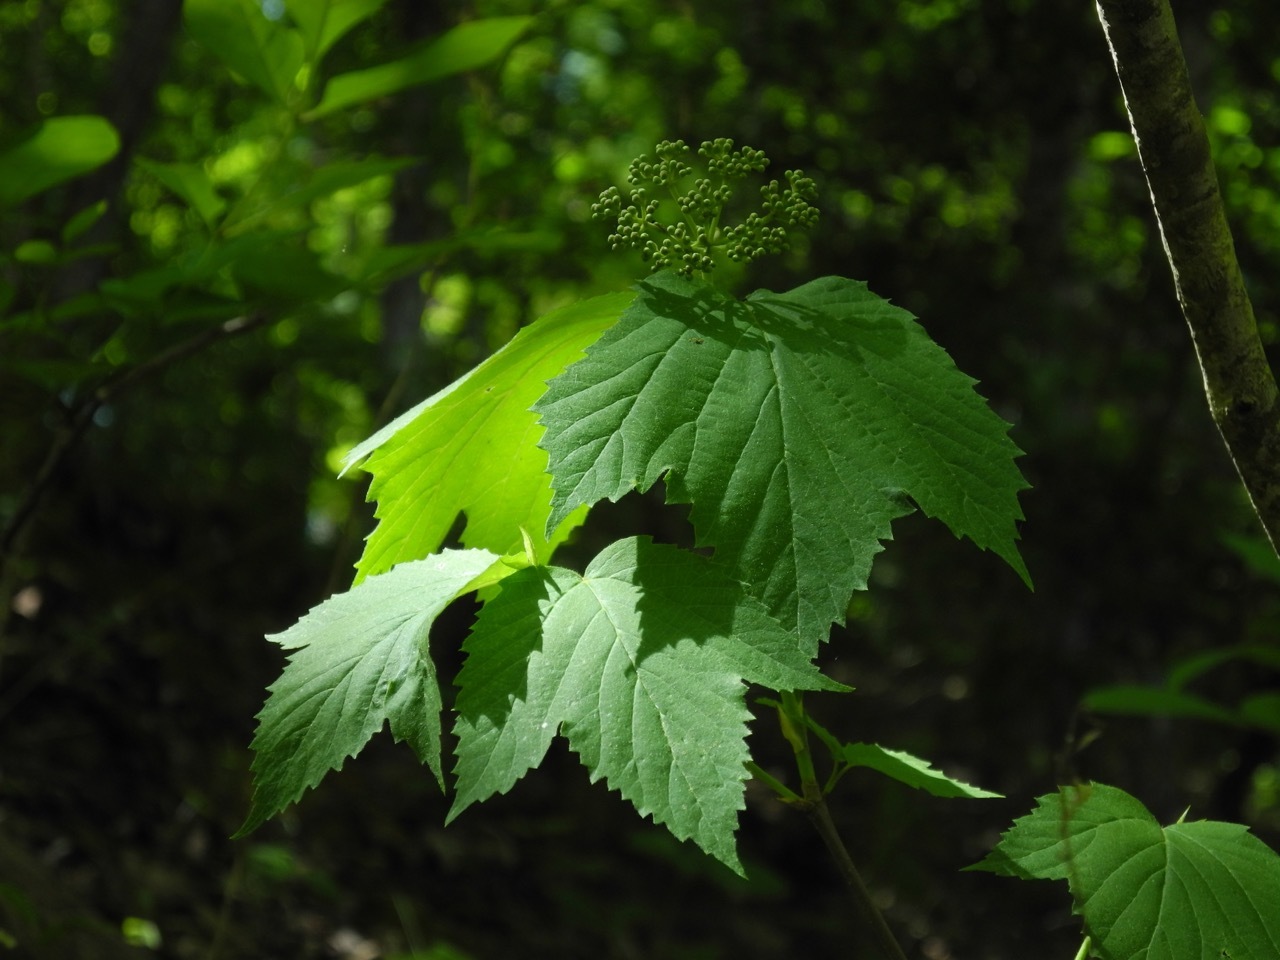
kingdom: Plantae
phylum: Tracheophyta
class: Magnoliopsida
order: Dipsacales
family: Viburnaceae
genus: Viburnum
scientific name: Viburnum acerifolium
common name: Dockmackie
